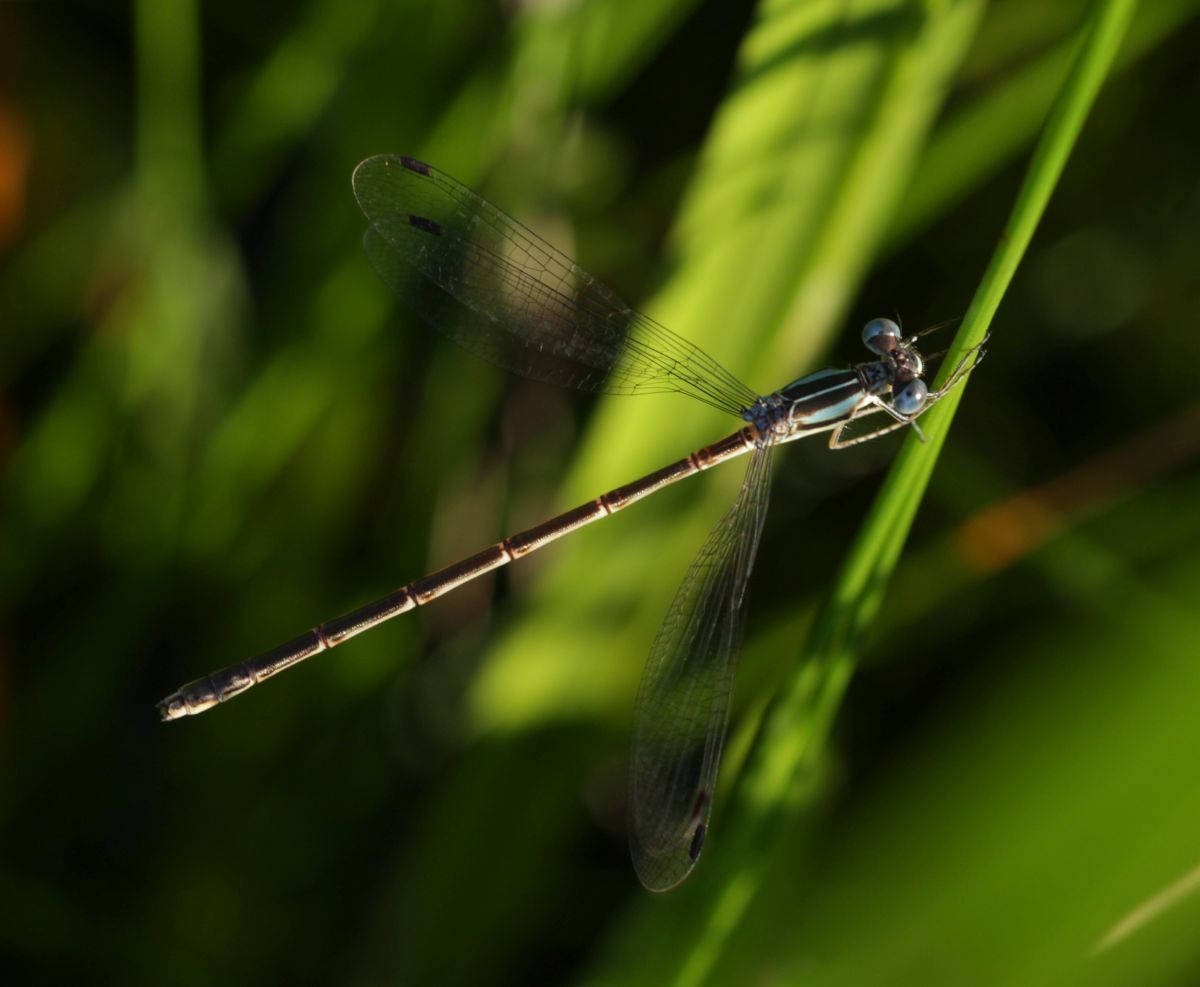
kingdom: Animalia
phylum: Arthropoda
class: Insecta
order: Odonata
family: Lestidae
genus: Lestes
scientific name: Lestes rectangularis
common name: Slender spreadwing
